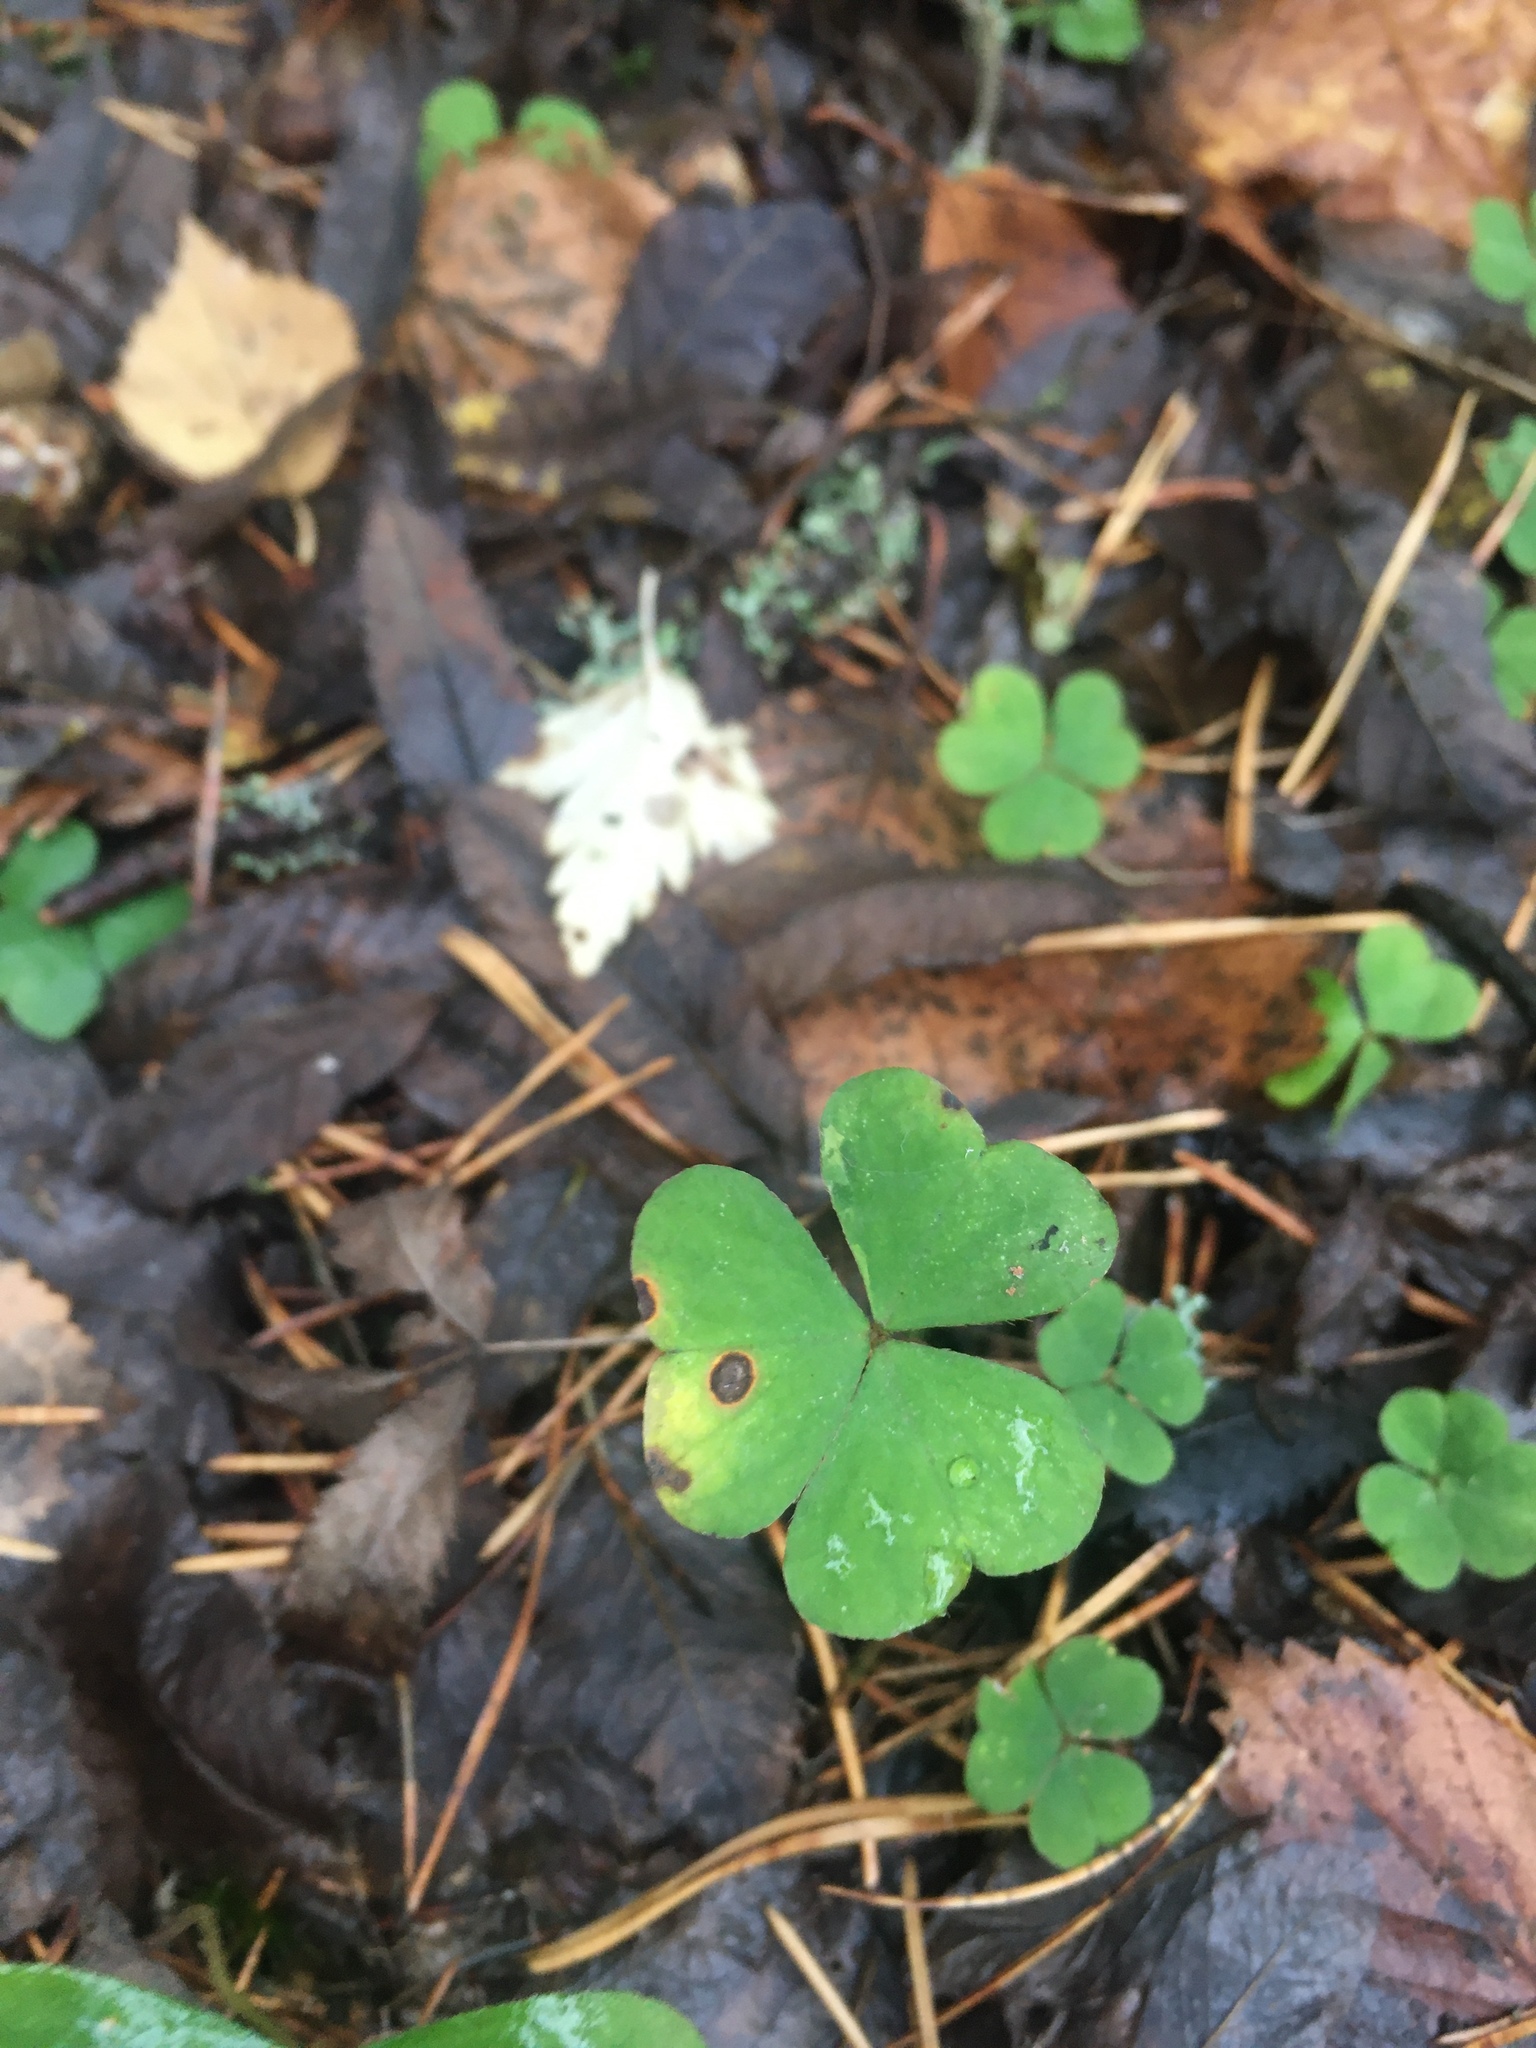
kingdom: Plantae
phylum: Tracheophyta
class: Magnoliopsida
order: Oxalidales
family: Oxalidaceae
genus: Oxalis
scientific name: Oxalis acetosella
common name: Wood-sorrel
